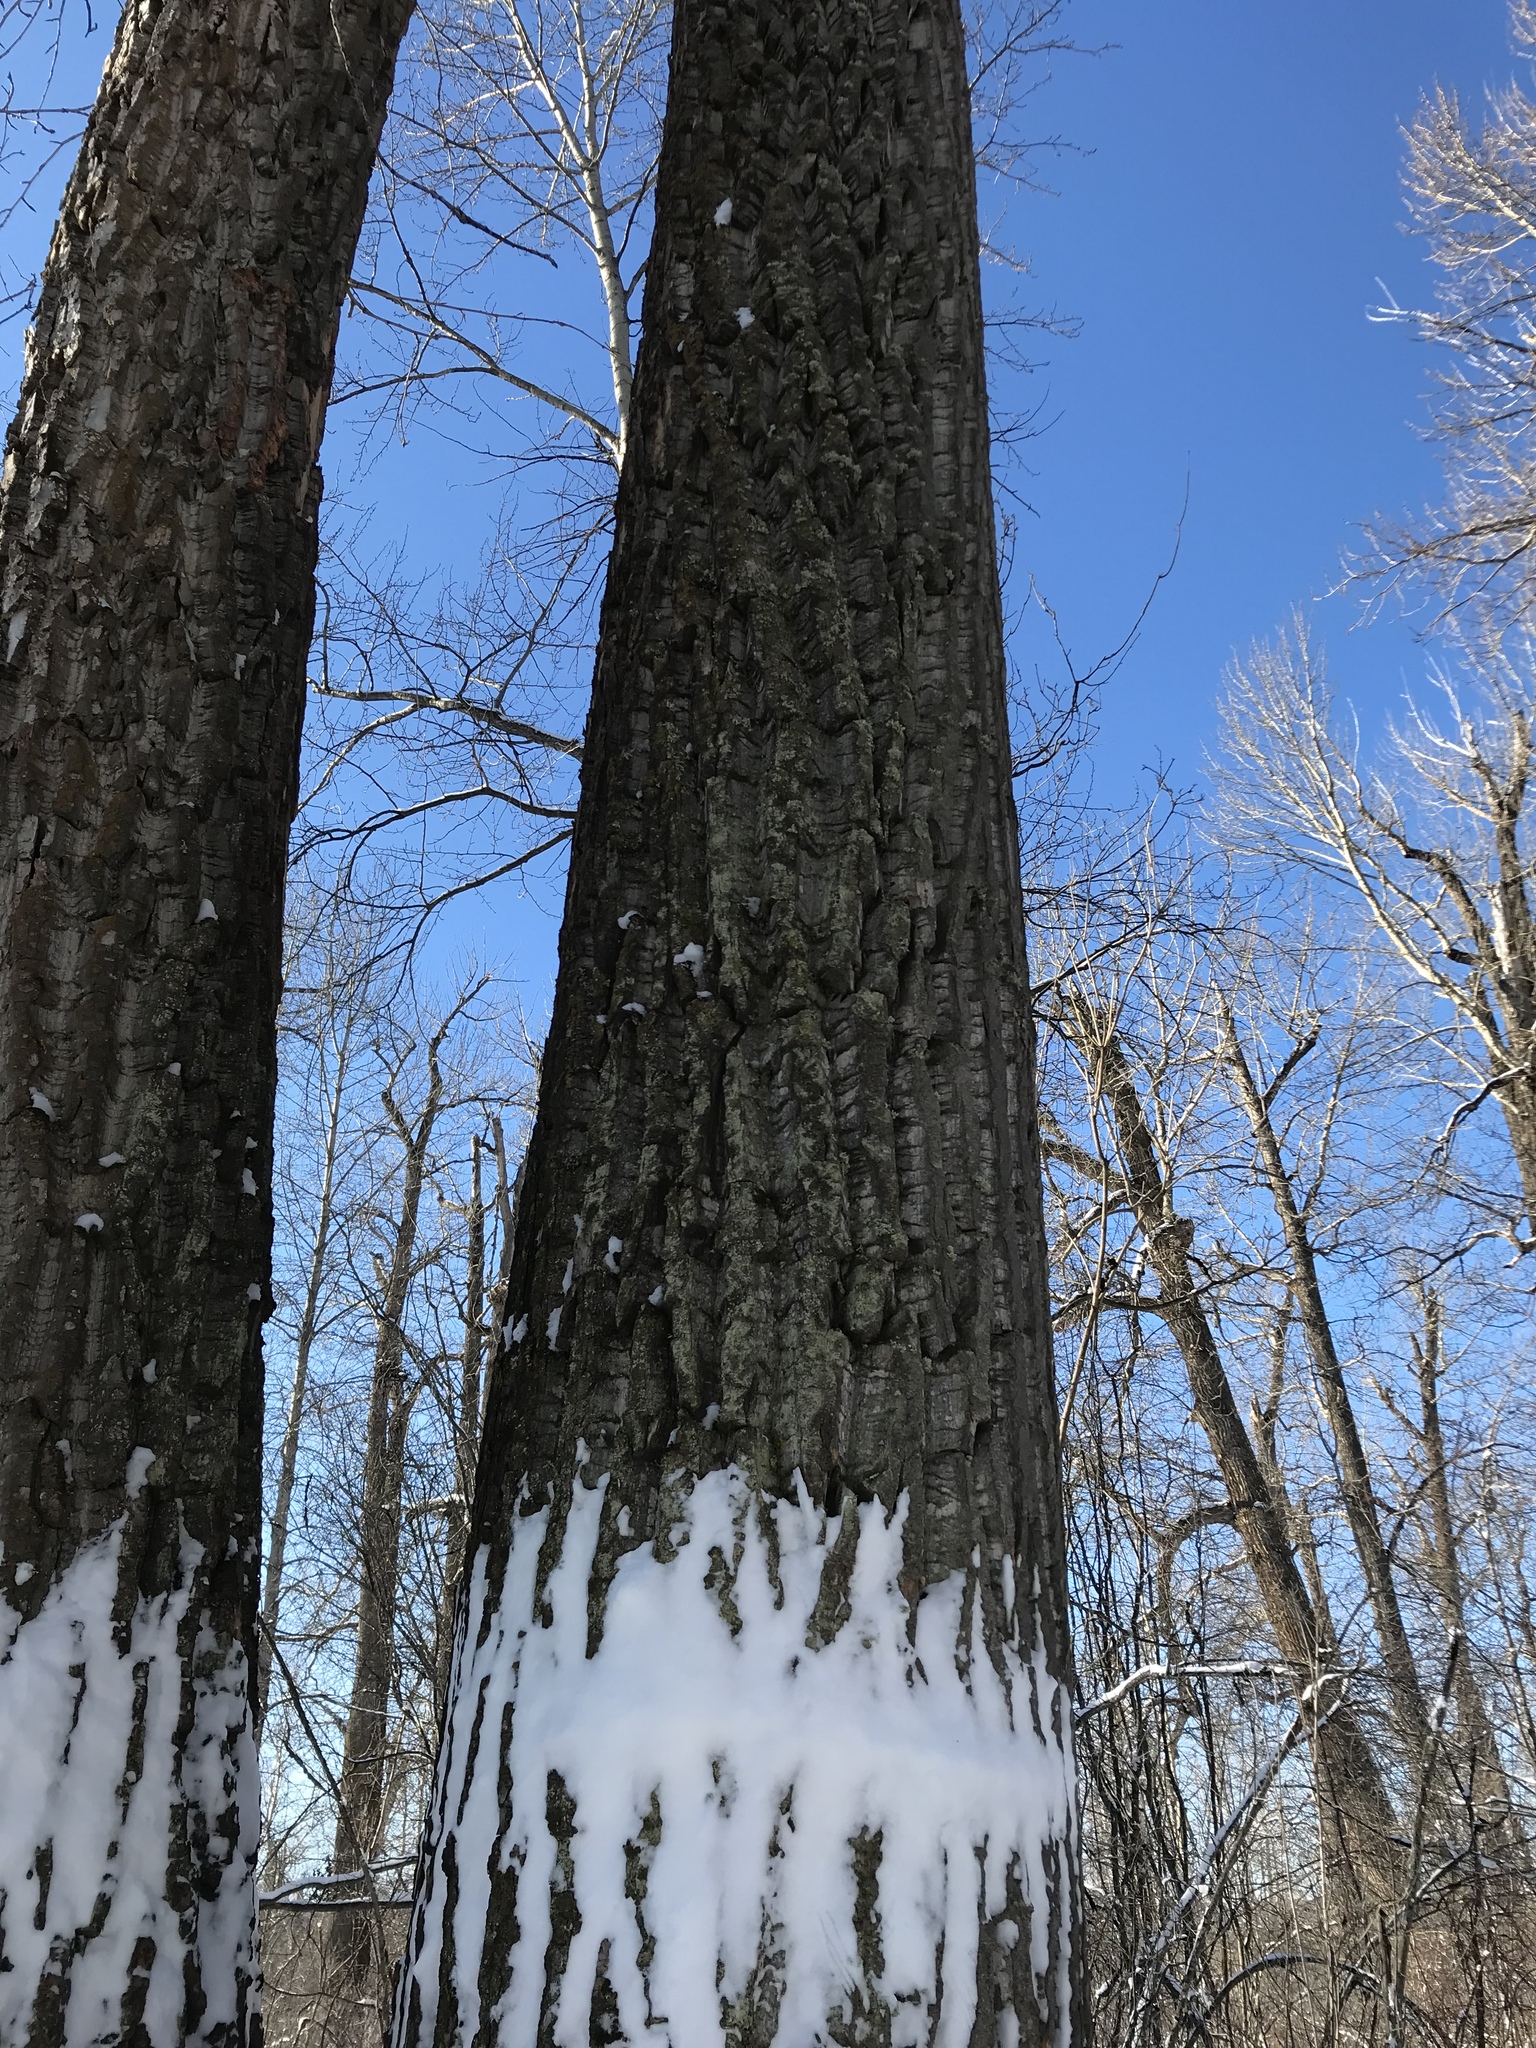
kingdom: Plantae
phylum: Tracheophyta
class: Magnoliopsida
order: Malpighiales
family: Salicaceae
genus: Populus
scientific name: Populus trichocarpa
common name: Black cottonwood
